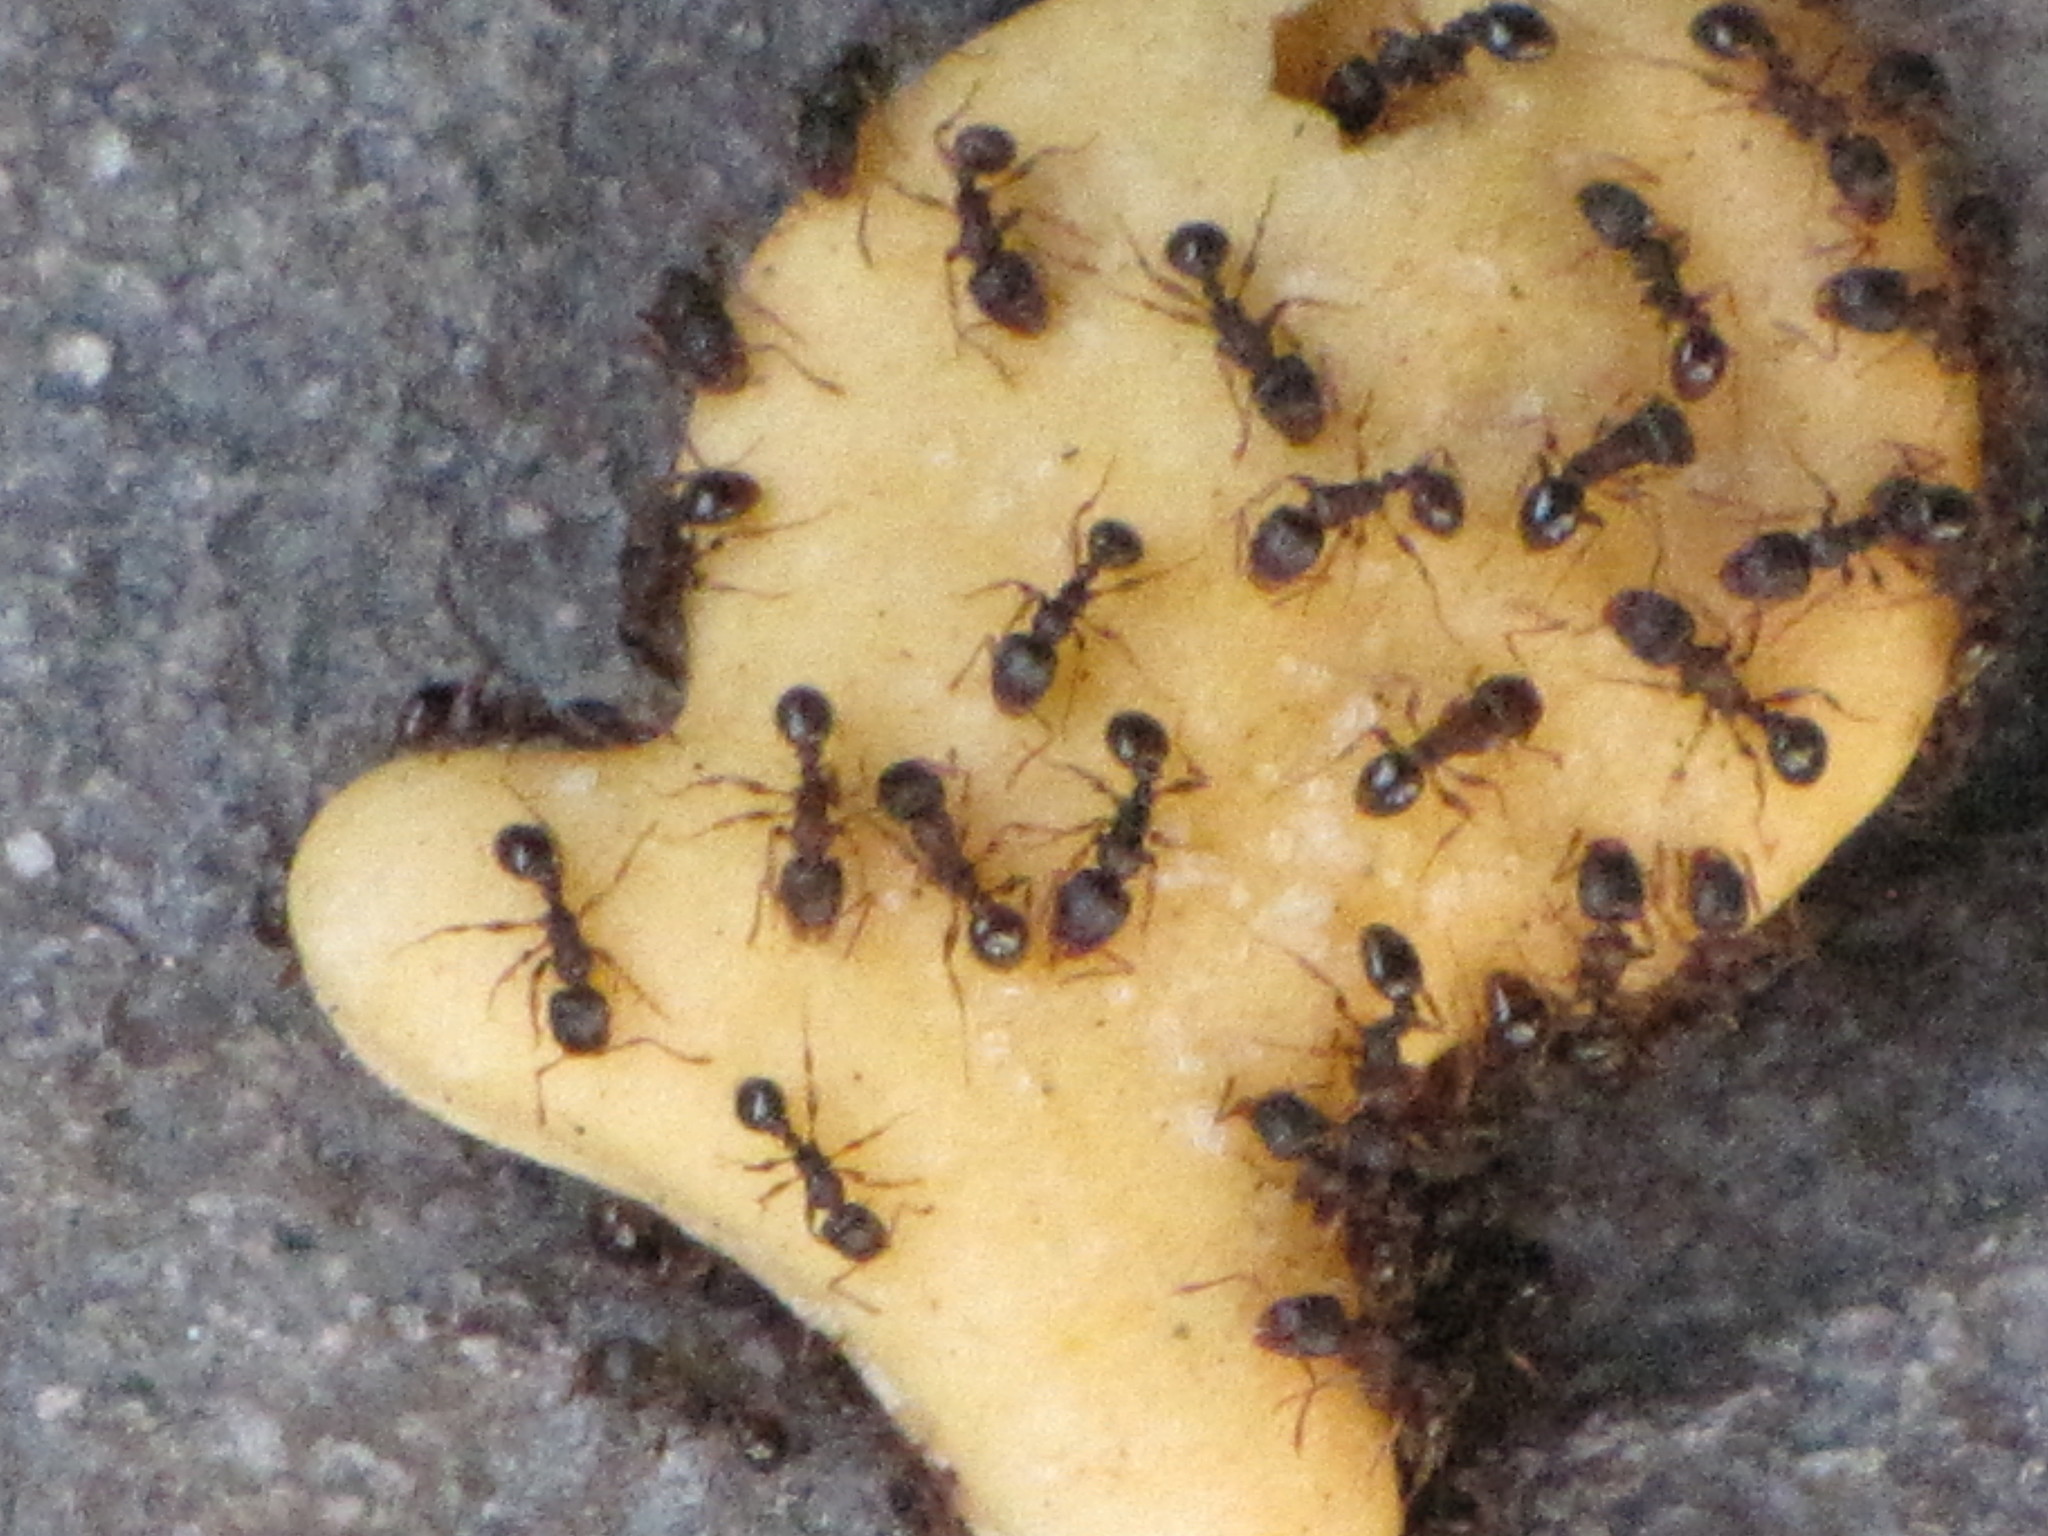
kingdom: Animalia
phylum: Arthropoda
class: Insecta
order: Hymenoptera
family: Formicidae
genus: Tetramorium
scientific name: Tetramorium immigrans
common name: Pavement ant
